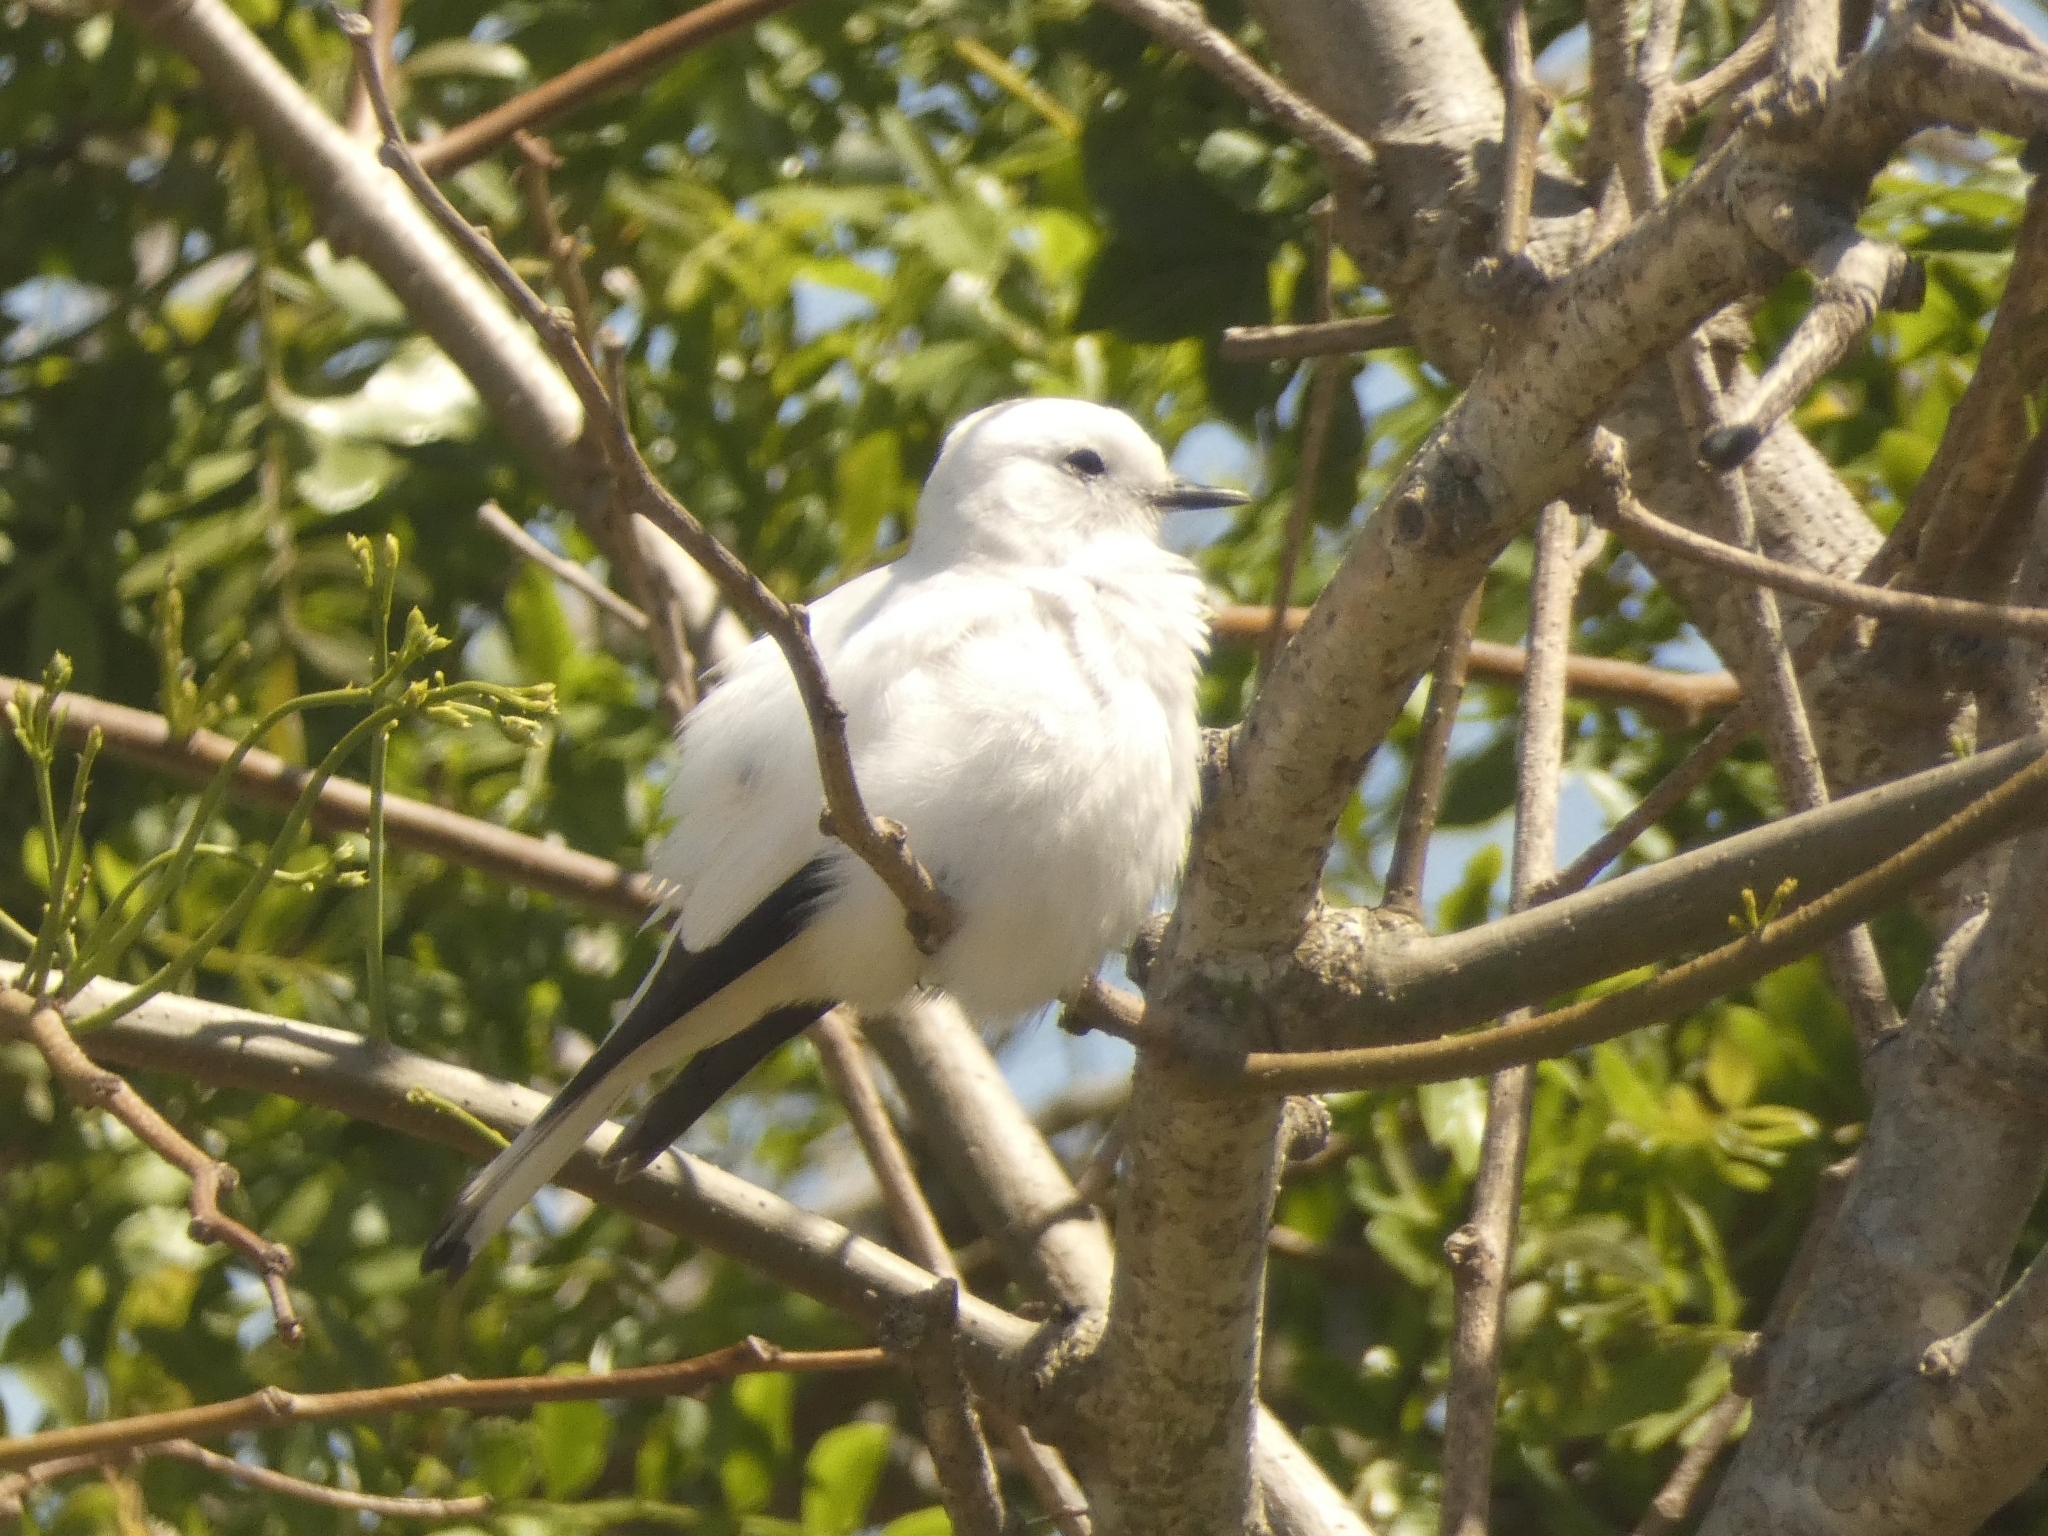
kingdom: Animalia
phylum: Chordata
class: Aves
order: Passeriformes
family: Tyrannidae
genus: Xolmis
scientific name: Xolmis irupero
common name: White monjita
